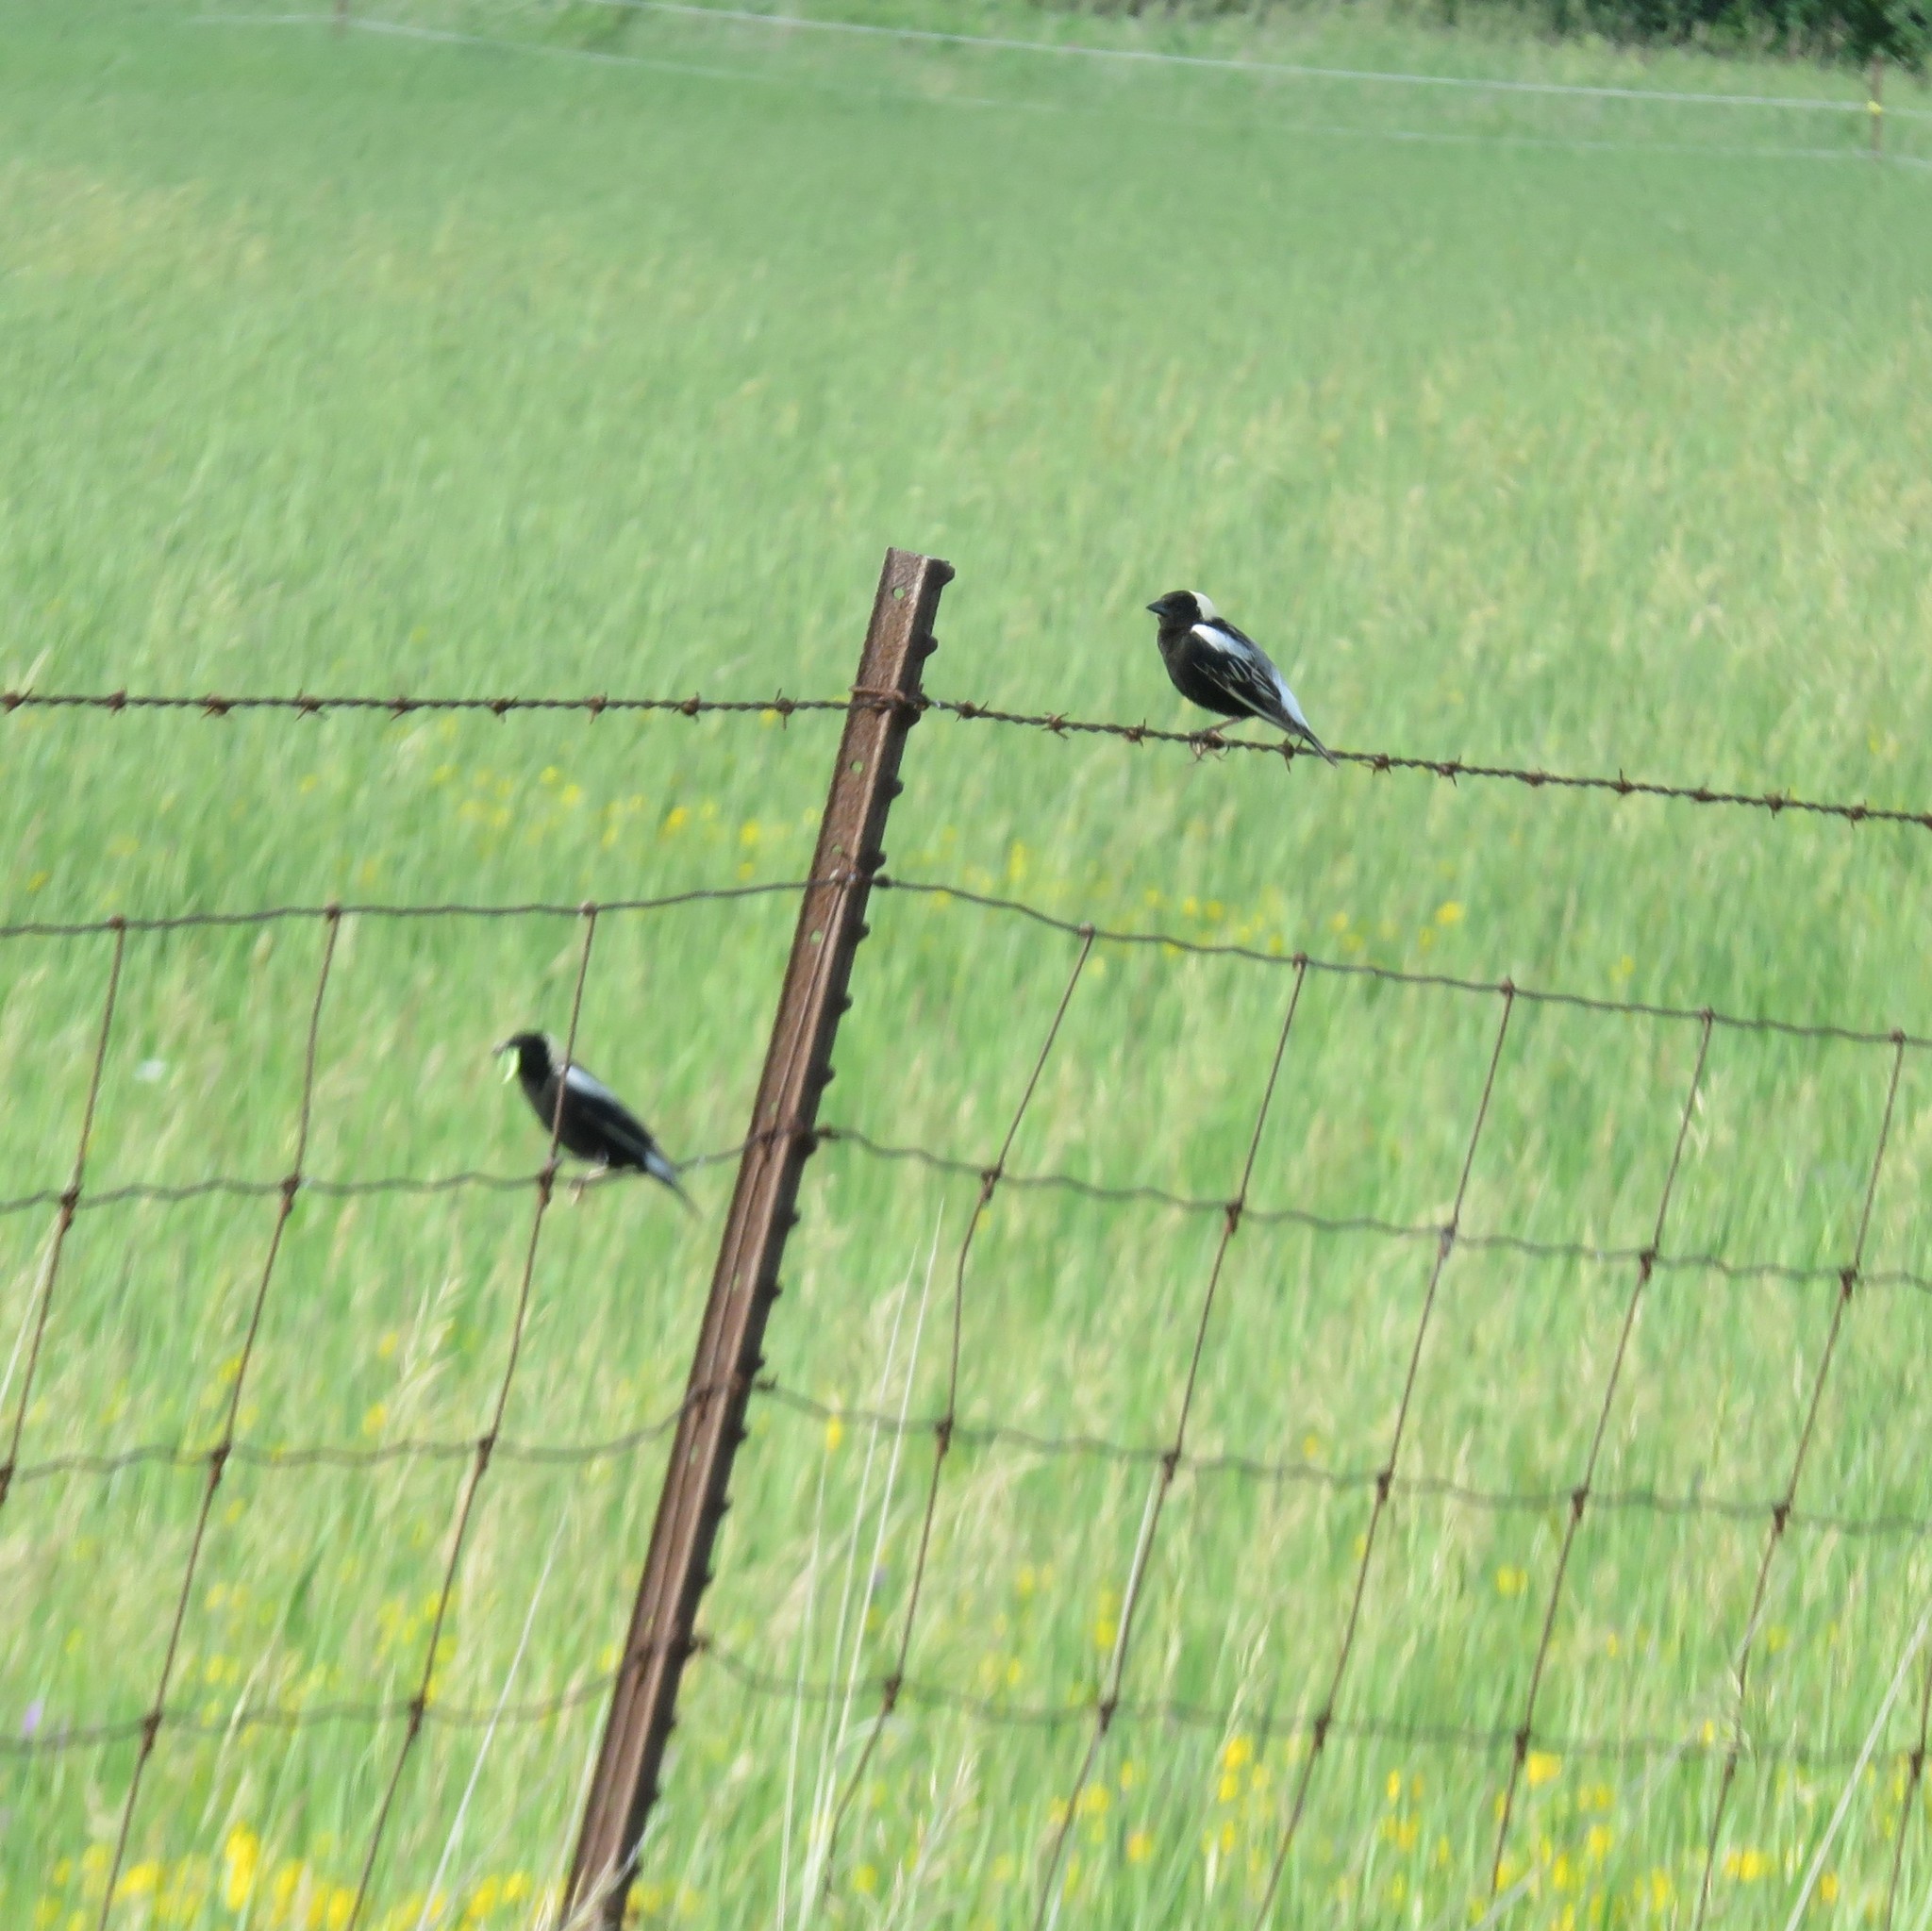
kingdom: Animalia
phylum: Chordata
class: Aves
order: Passeriformes
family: Icteridae
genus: Dolichonyx
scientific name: Dolichonyx oryzivorus
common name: Bobolink
